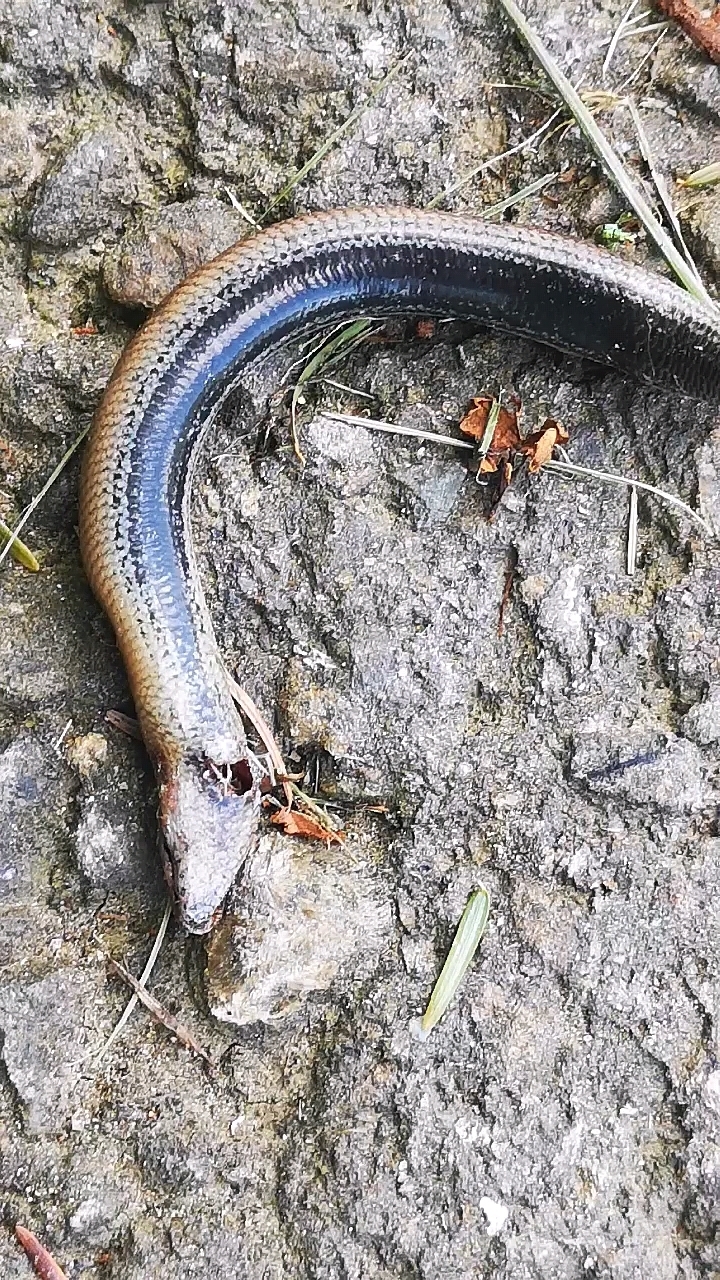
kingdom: Animalia
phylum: Chordata
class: Squamata
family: Anguidae
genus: Anguis
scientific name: Anguis fragilis
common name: Slow worm
